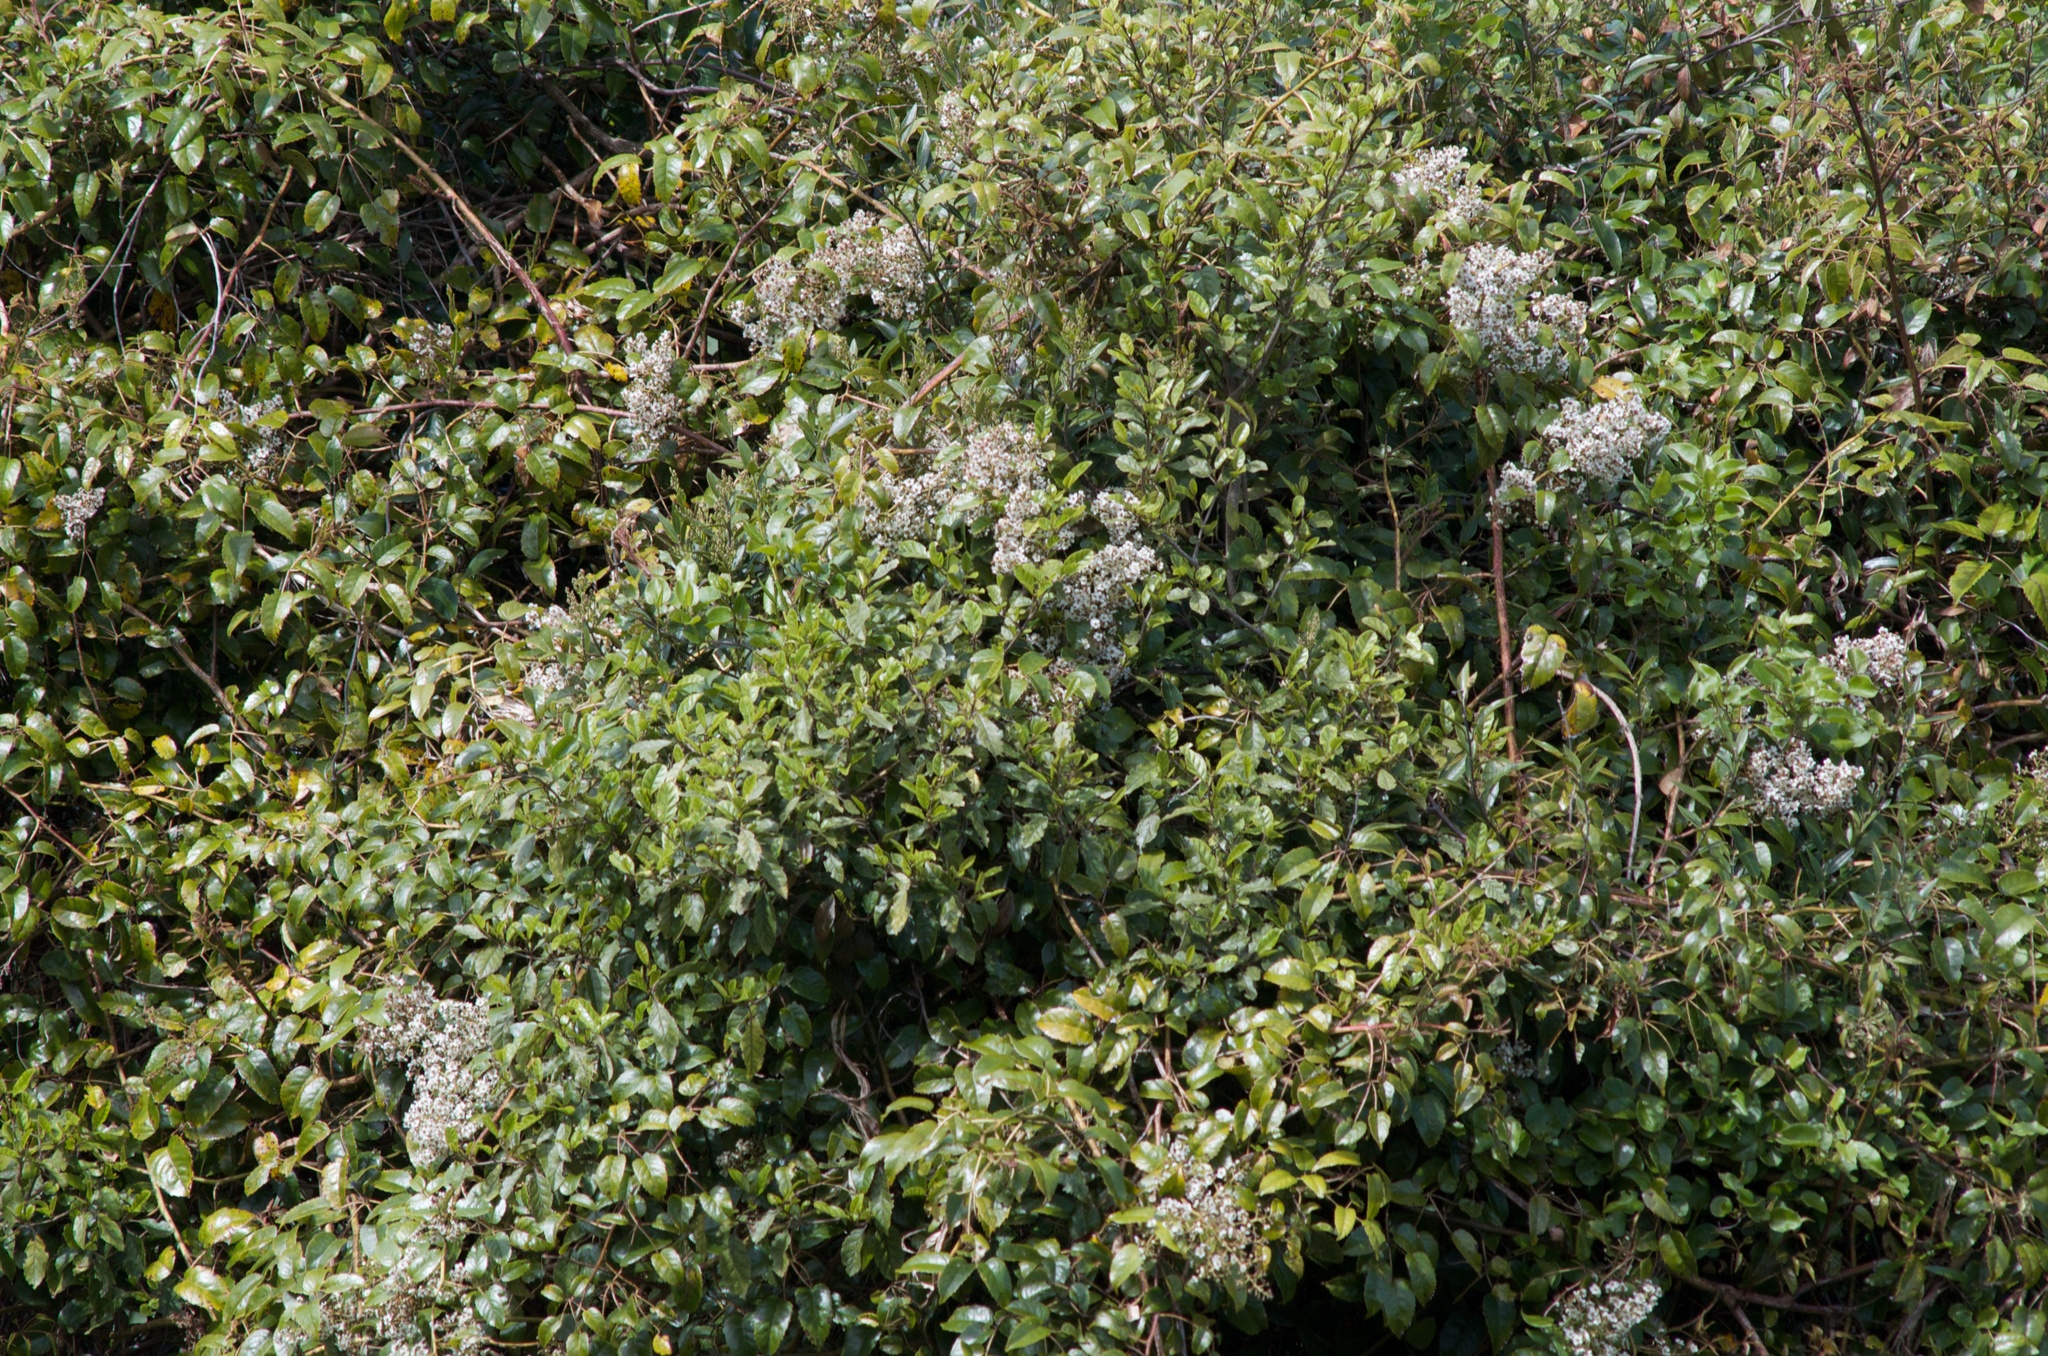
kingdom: Plantae
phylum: Tracheophyta
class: Magnoliopsida
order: Rosales
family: Rosaceae
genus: Rubus
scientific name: Rubus cissoides
